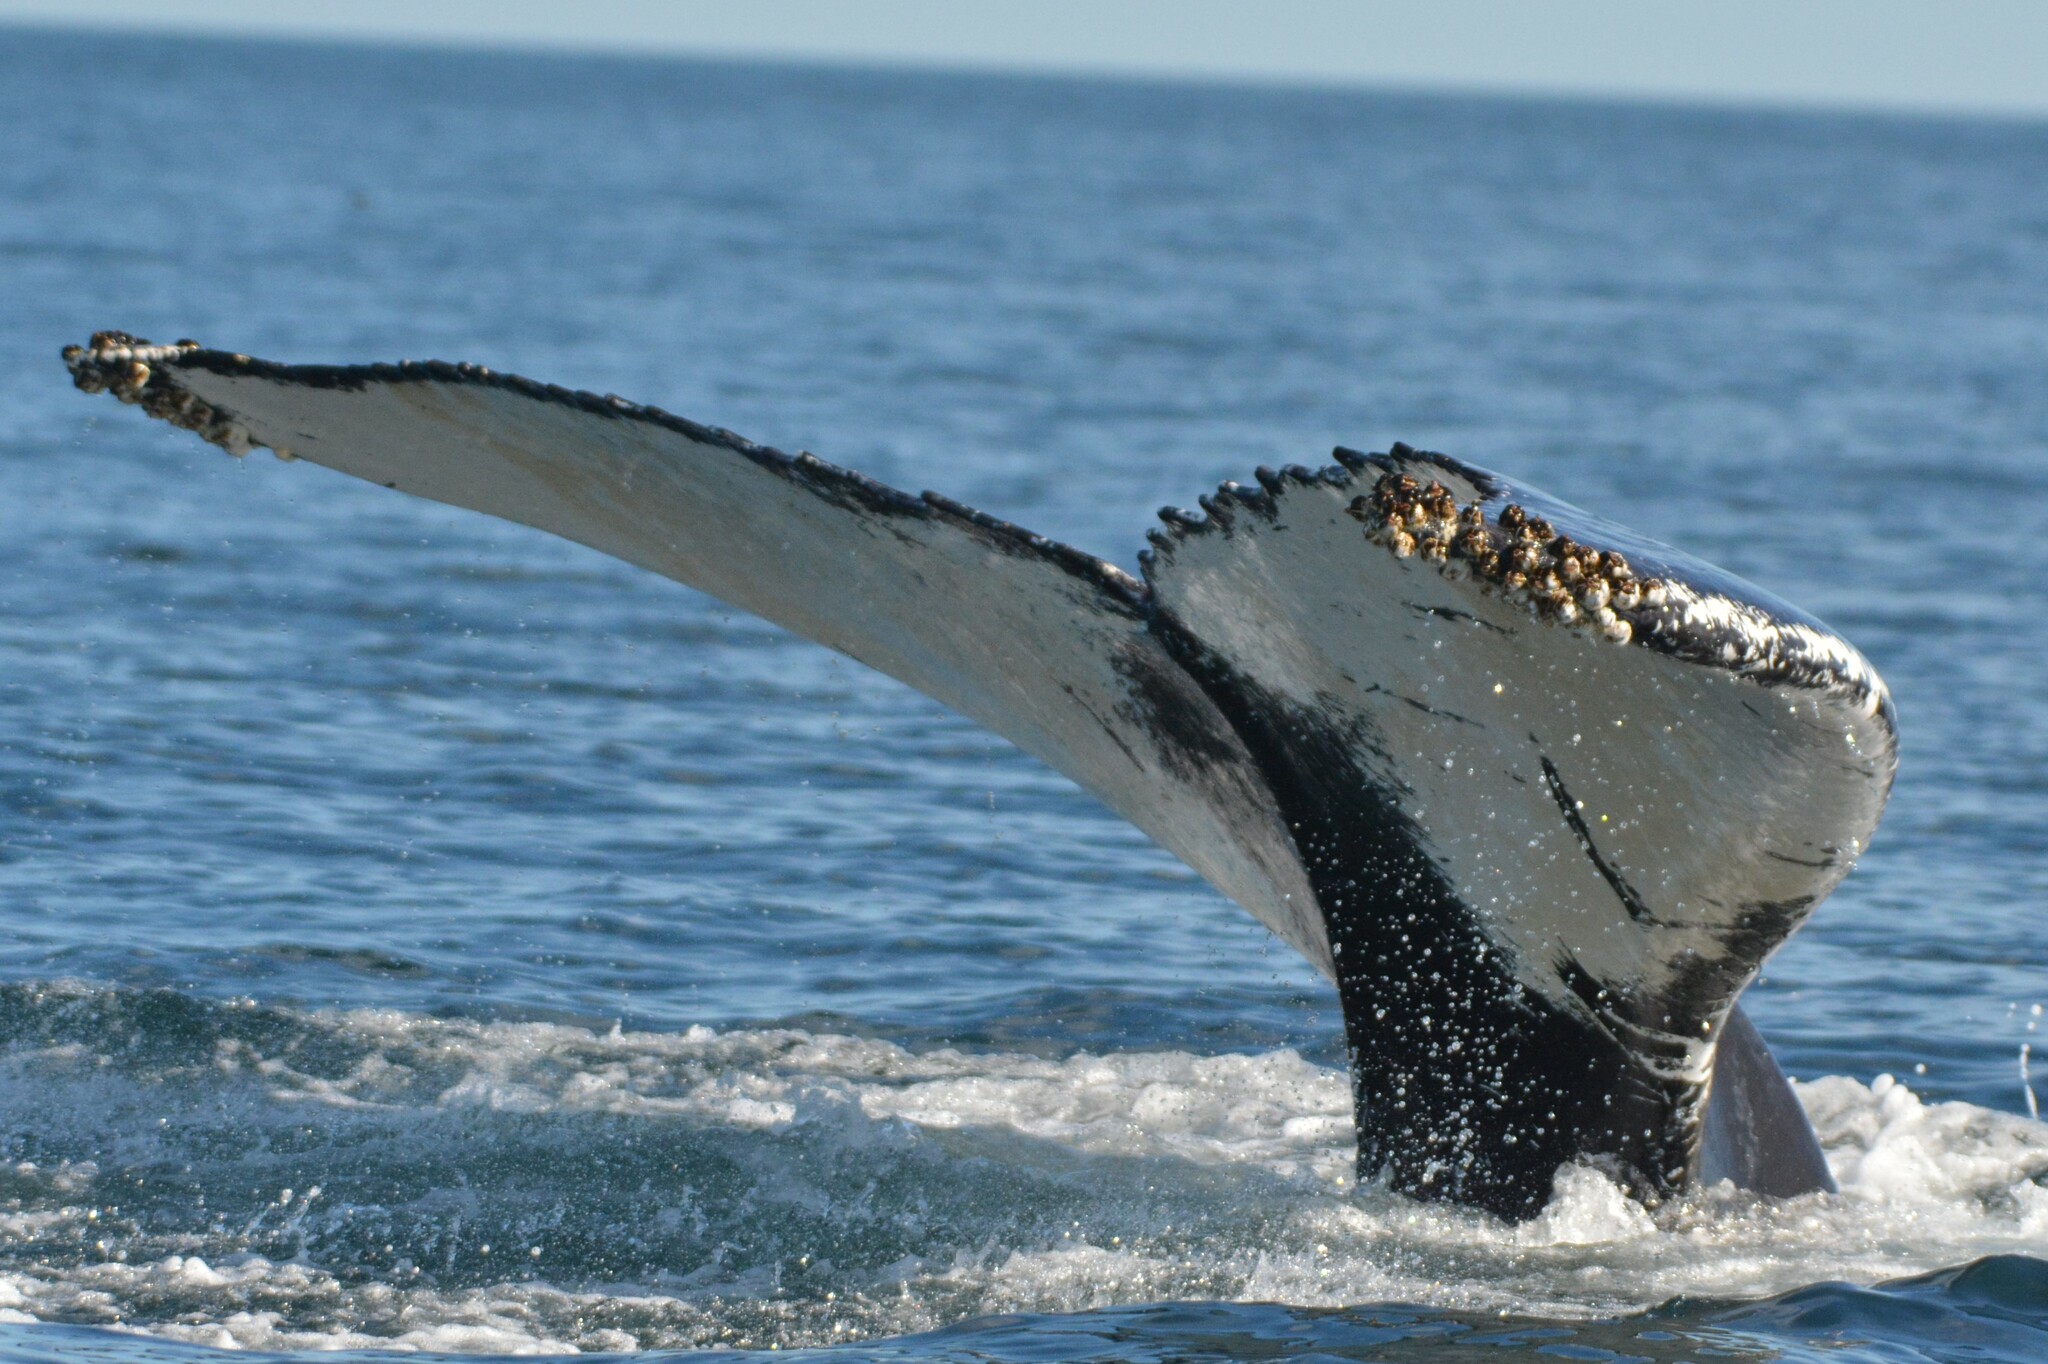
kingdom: Animalia
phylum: Chordata
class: Mammalia
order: Cetacea
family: Balaenopteridae
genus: Megaptera
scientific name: Megaptera novaeangliae
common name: Humpback whale
